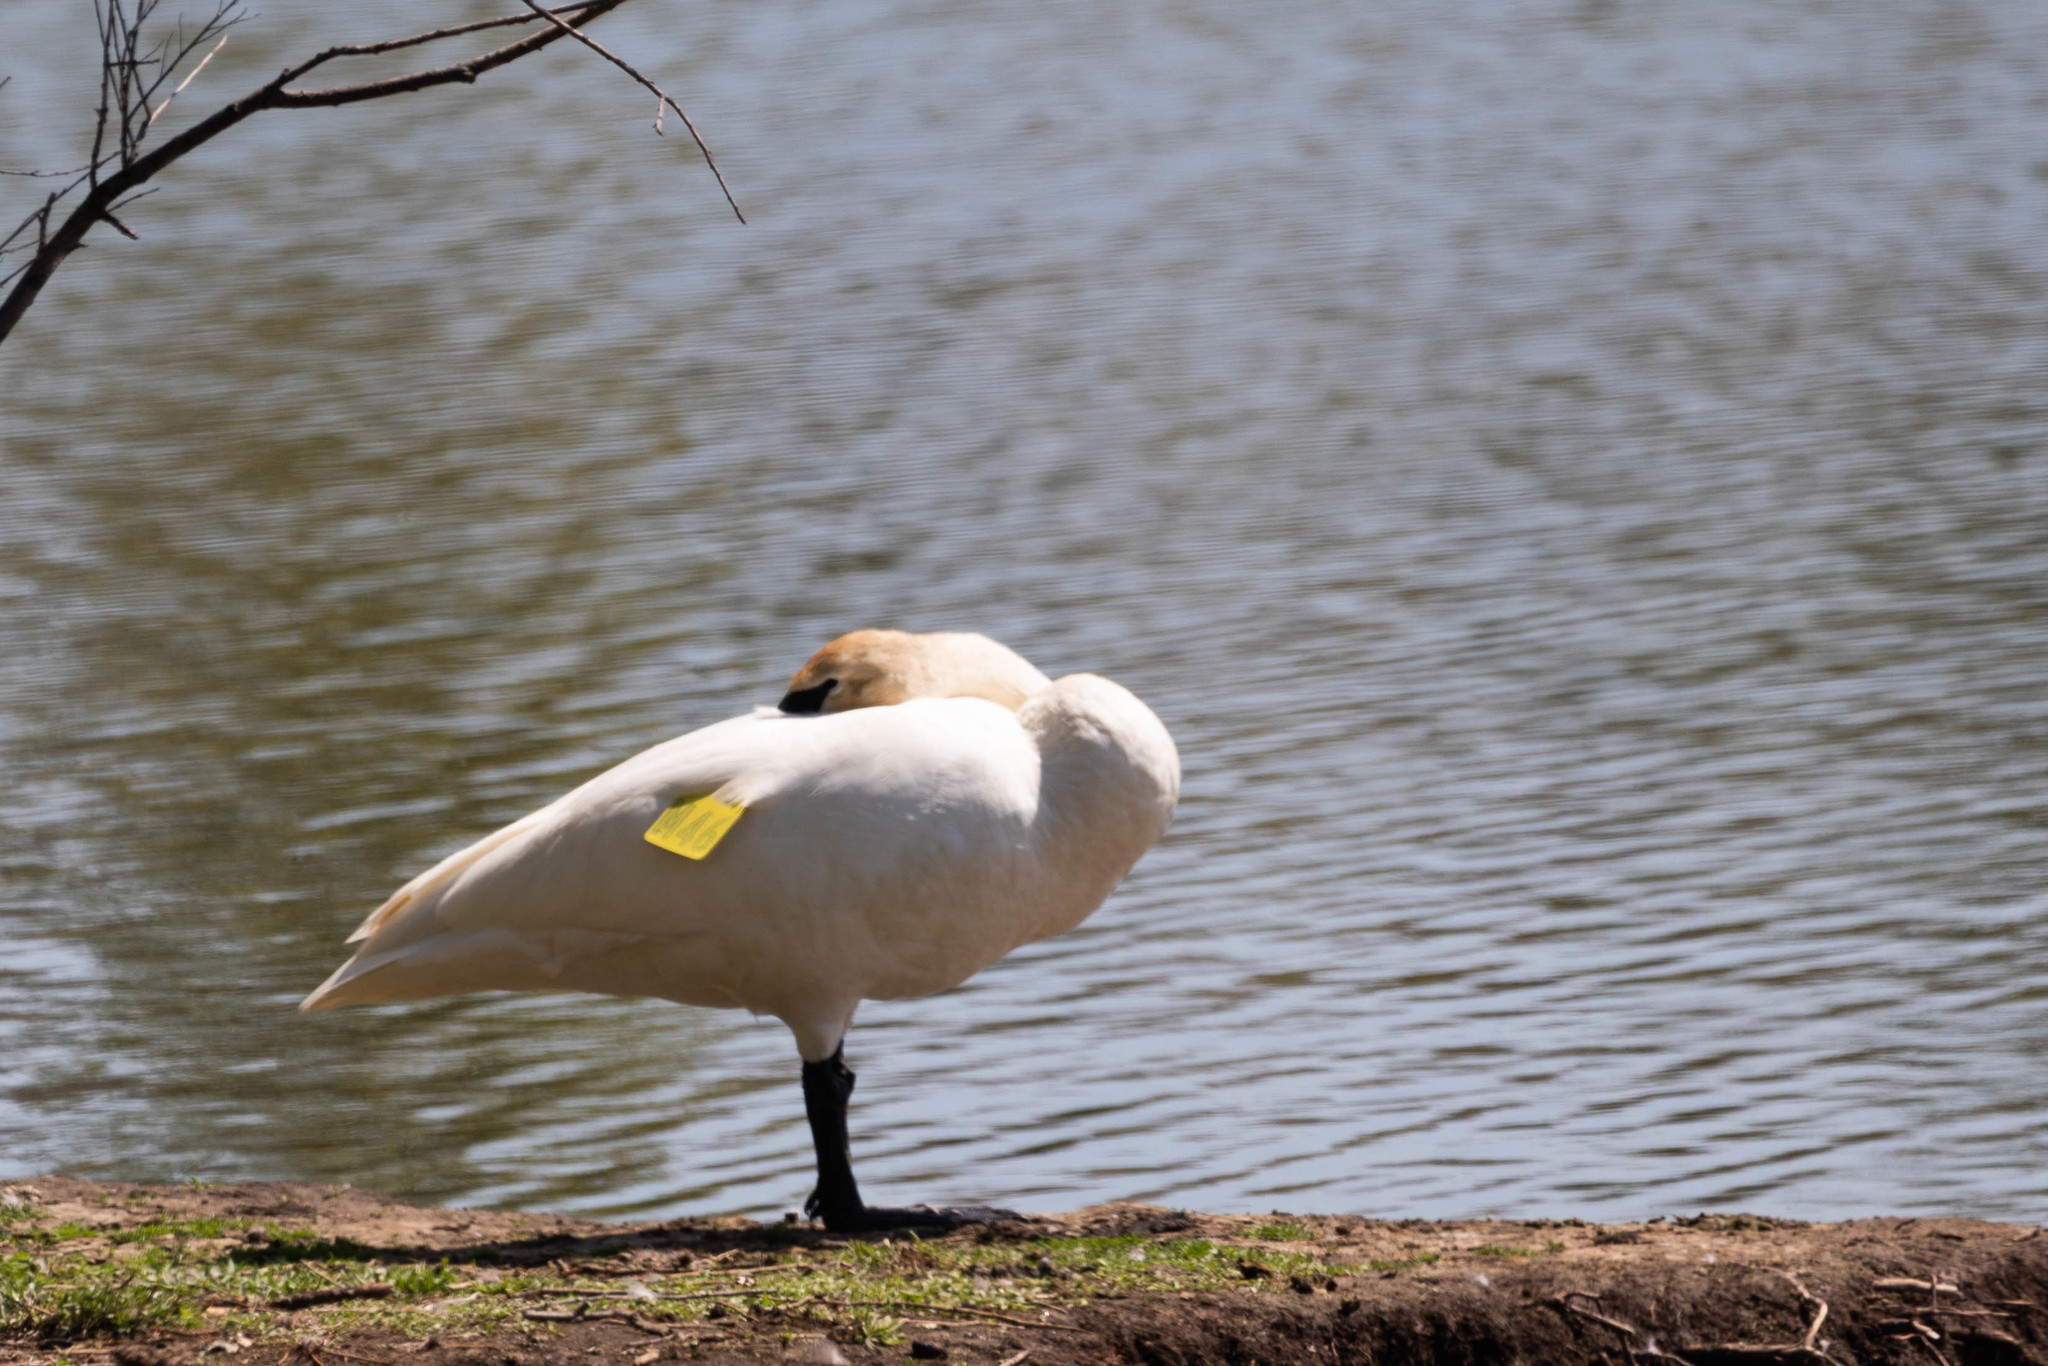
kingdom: Animalia
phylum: Chordata
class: Aves
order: Anseriformes
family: Anatidae
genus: Cygnus
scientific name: Cygnus buccinator
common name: Trumpeter swan
